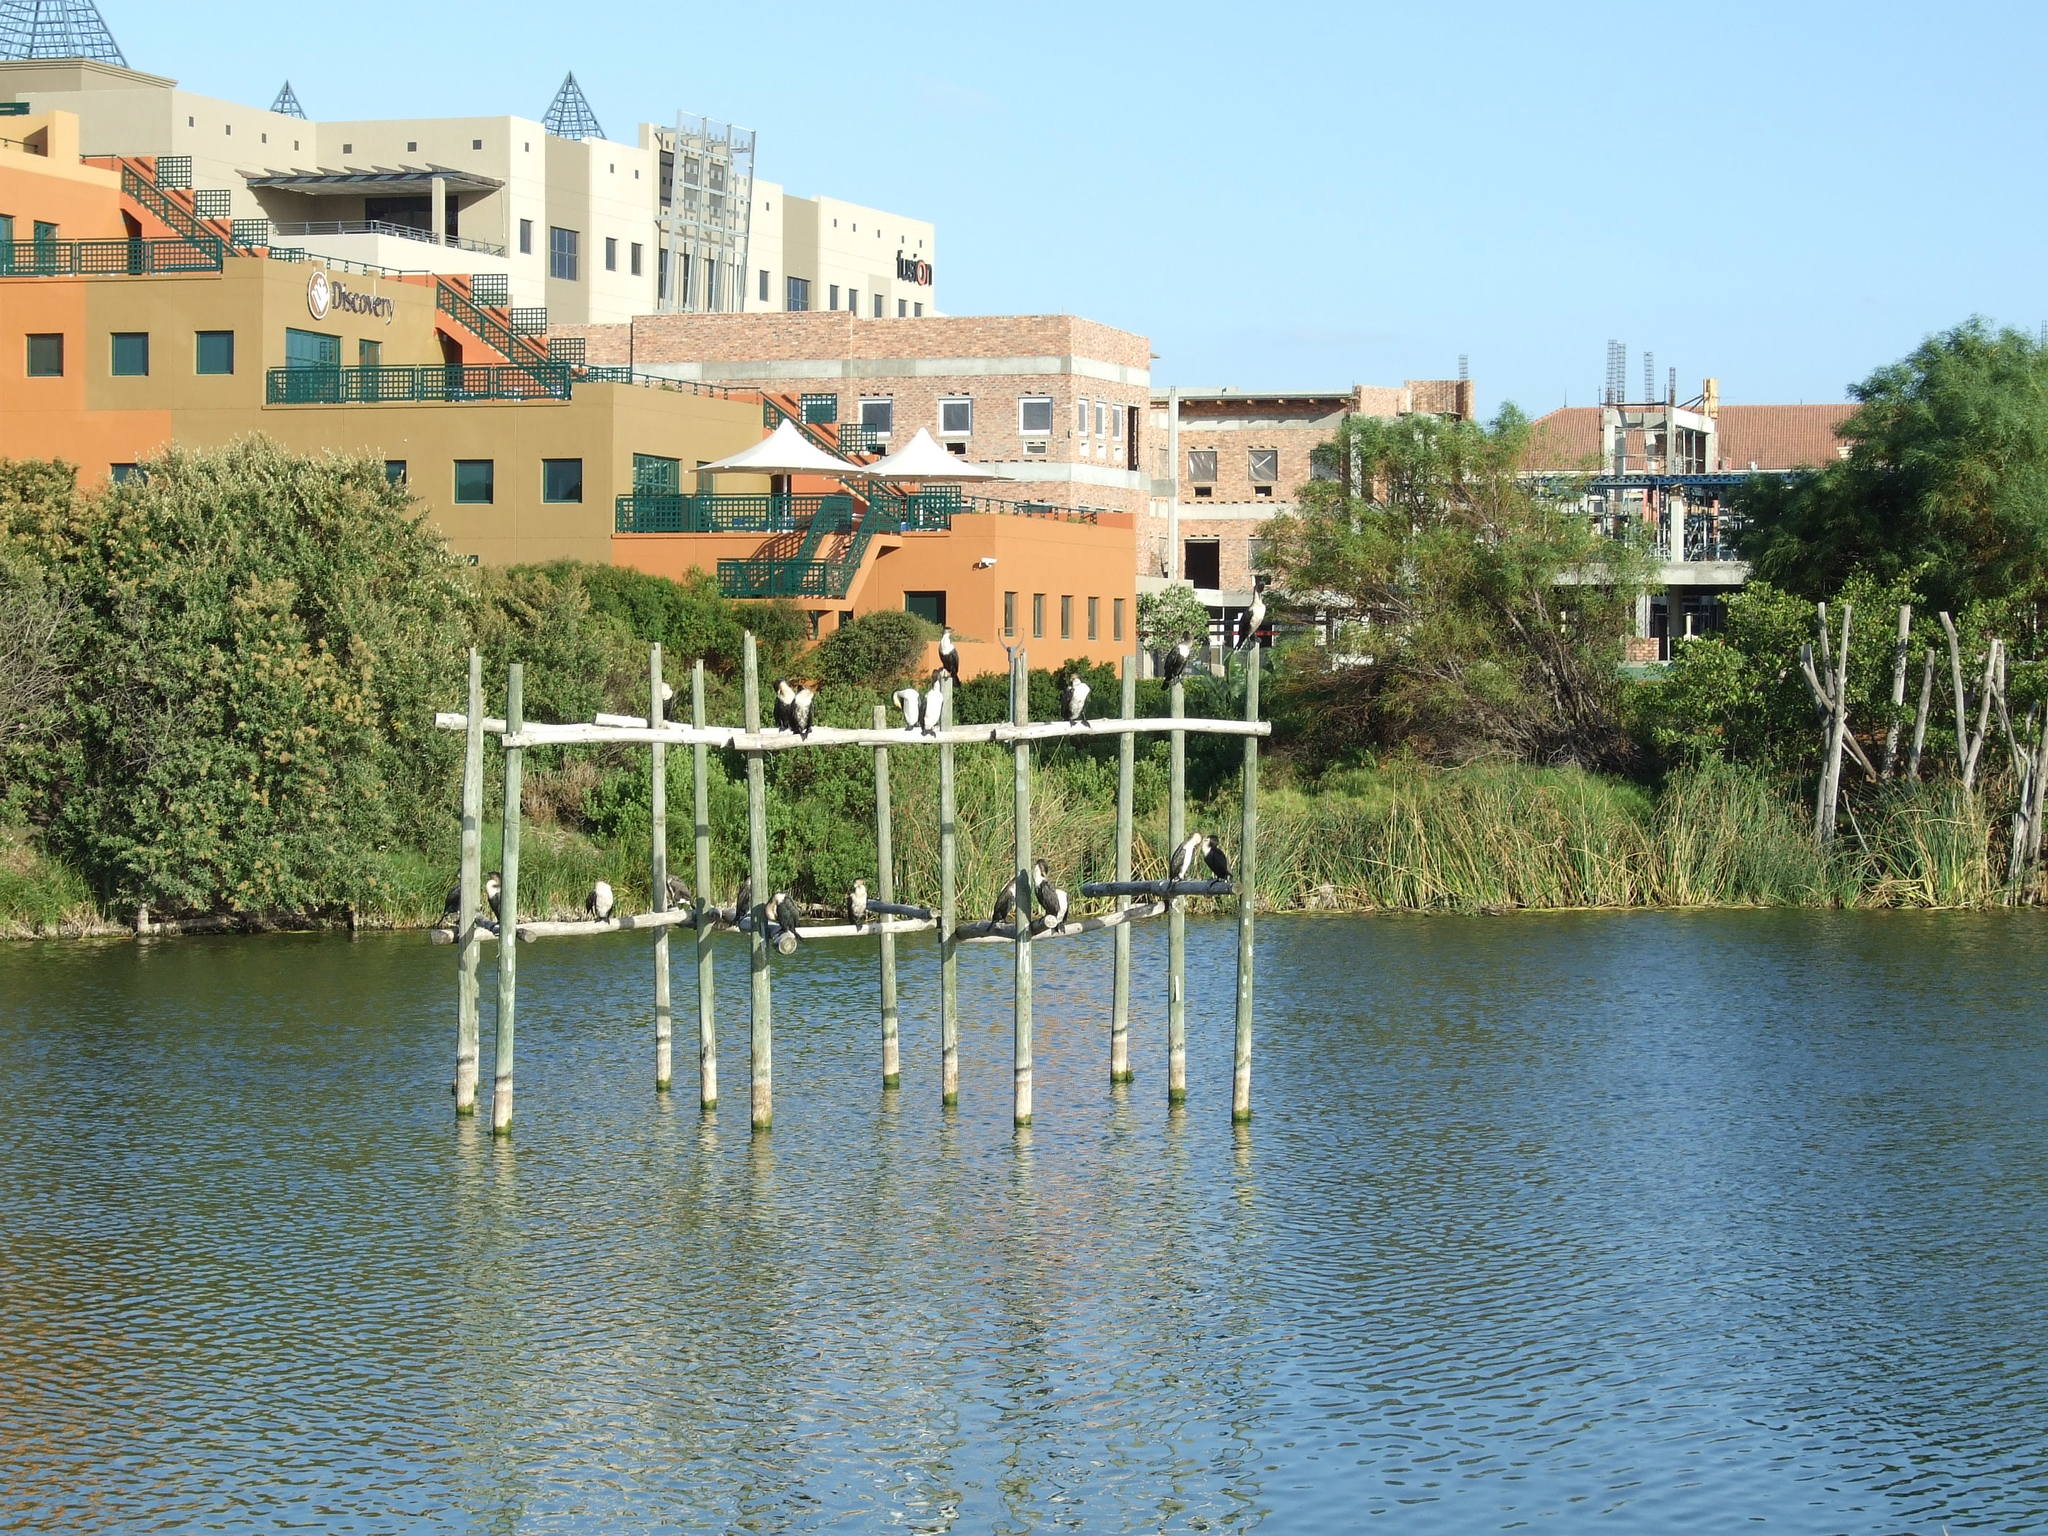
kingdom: Animalia
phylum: Chordata
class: Aves
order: Suliformes
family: Phalacrocoracidae
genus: Phalacrocorax
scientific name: Phalacrocorax carbo
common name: Great cormorant
